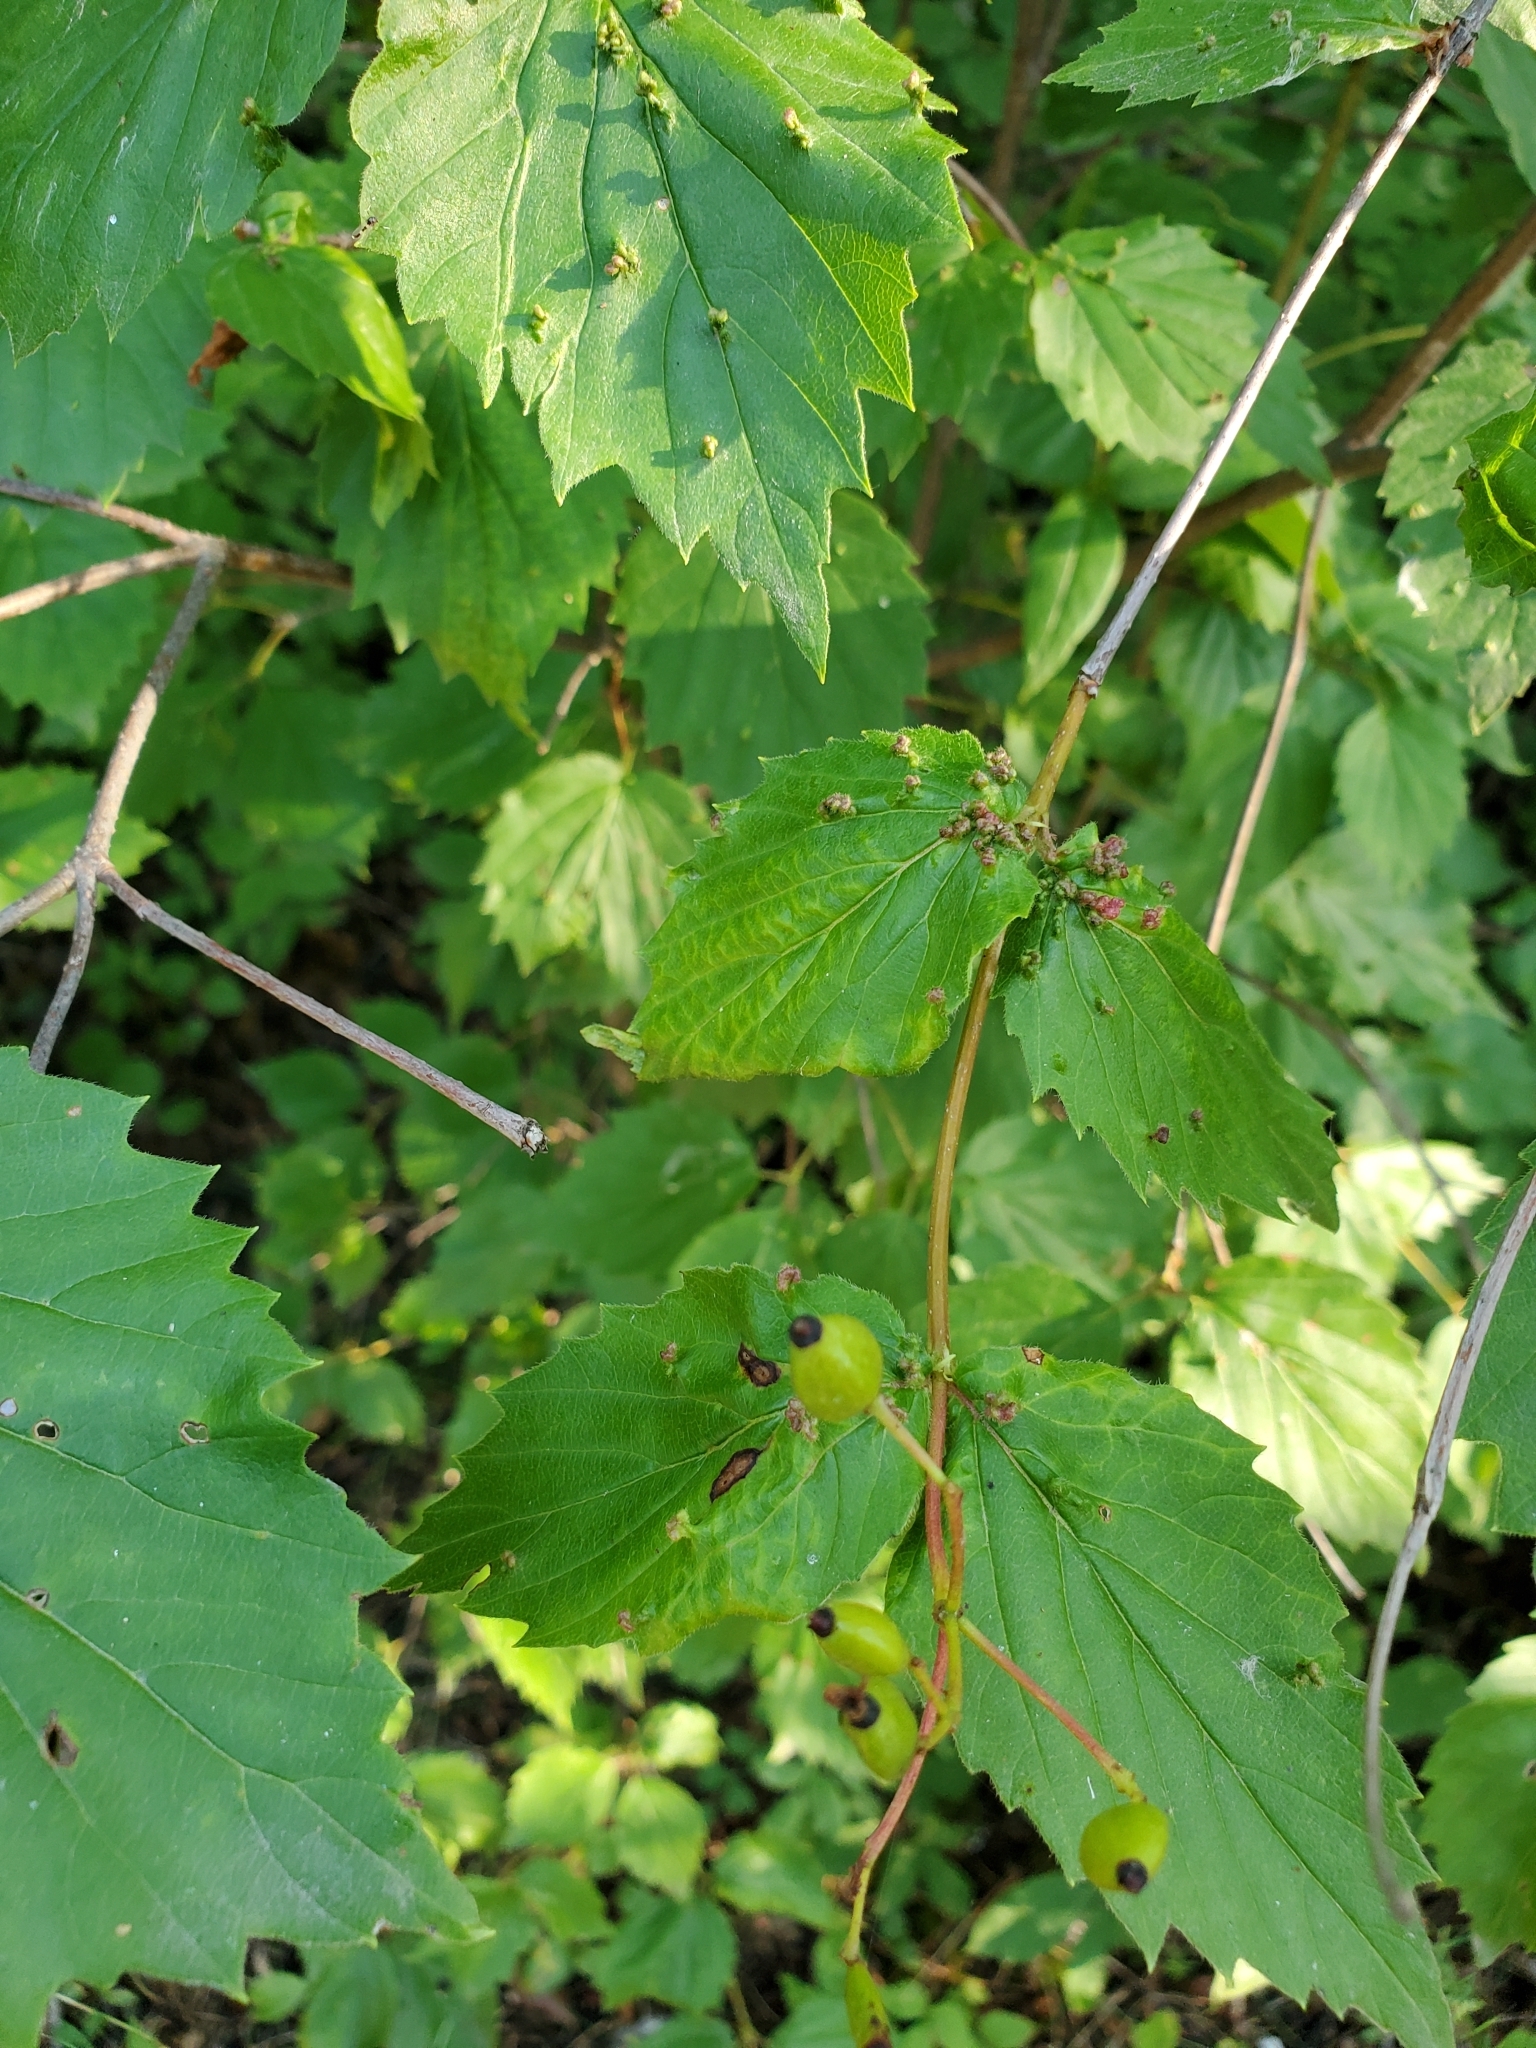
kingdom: Animalia
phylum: Arthropoda
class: Arachnida
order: Trombidiformes
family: Eriophyidae
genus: Eriophyes
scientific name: Eriophyes
